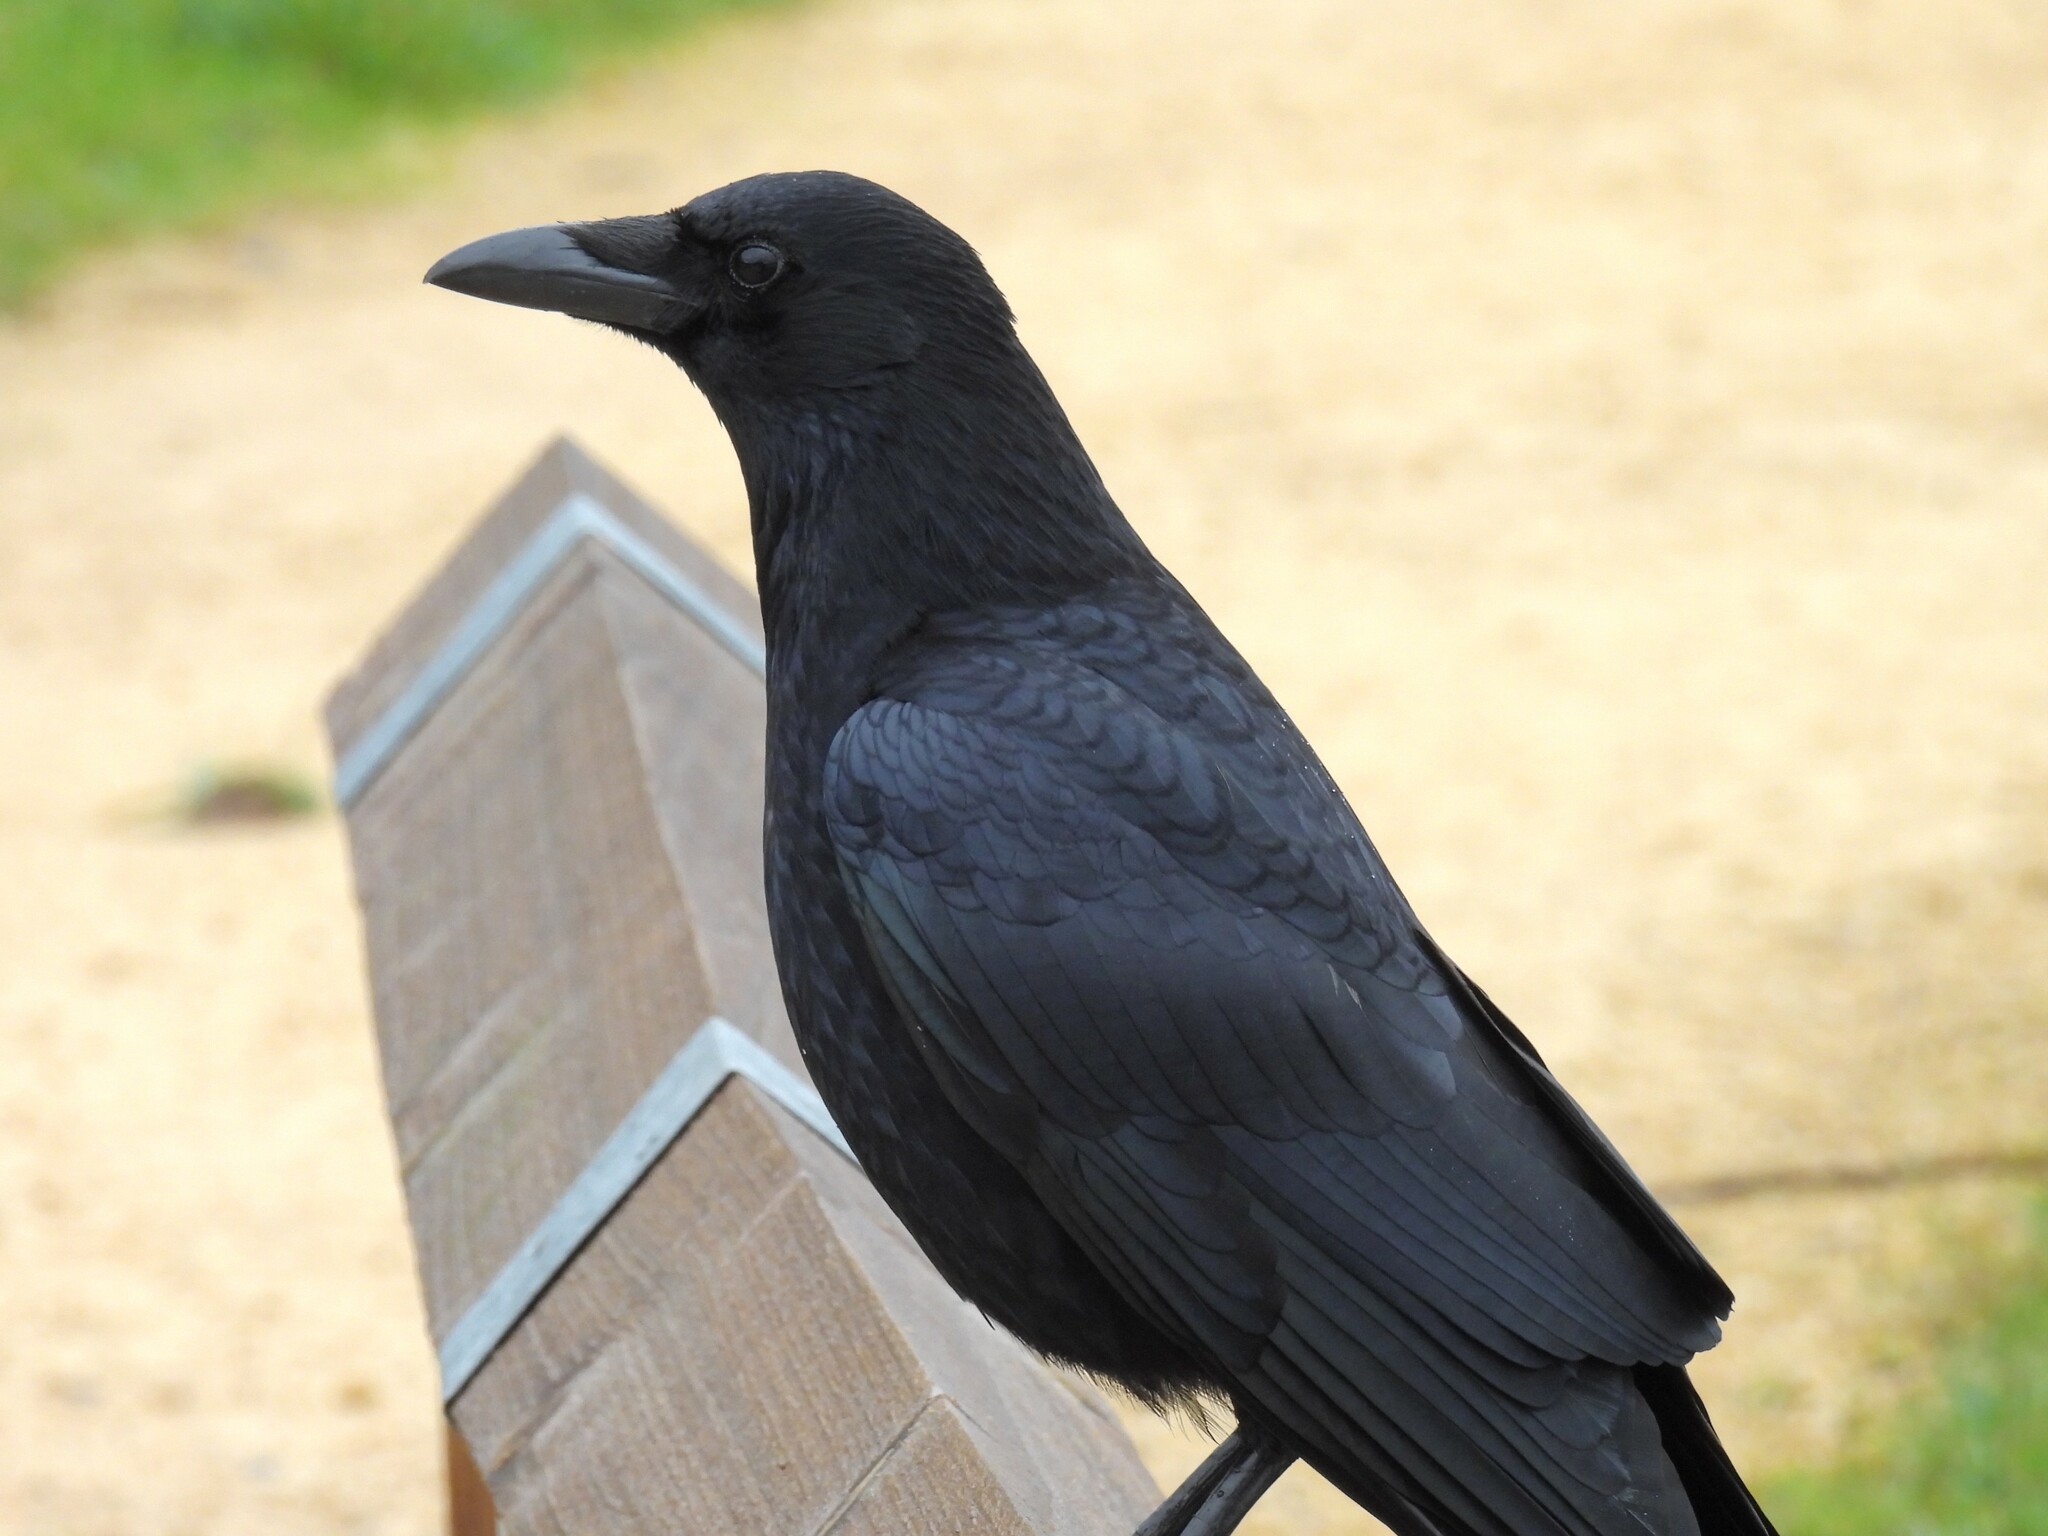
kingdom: Animalia
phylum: Chordata
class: Aves
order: Passeriformes
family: Corvidae
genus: Corvus
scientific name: Corvus corone
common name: Carrion crow
